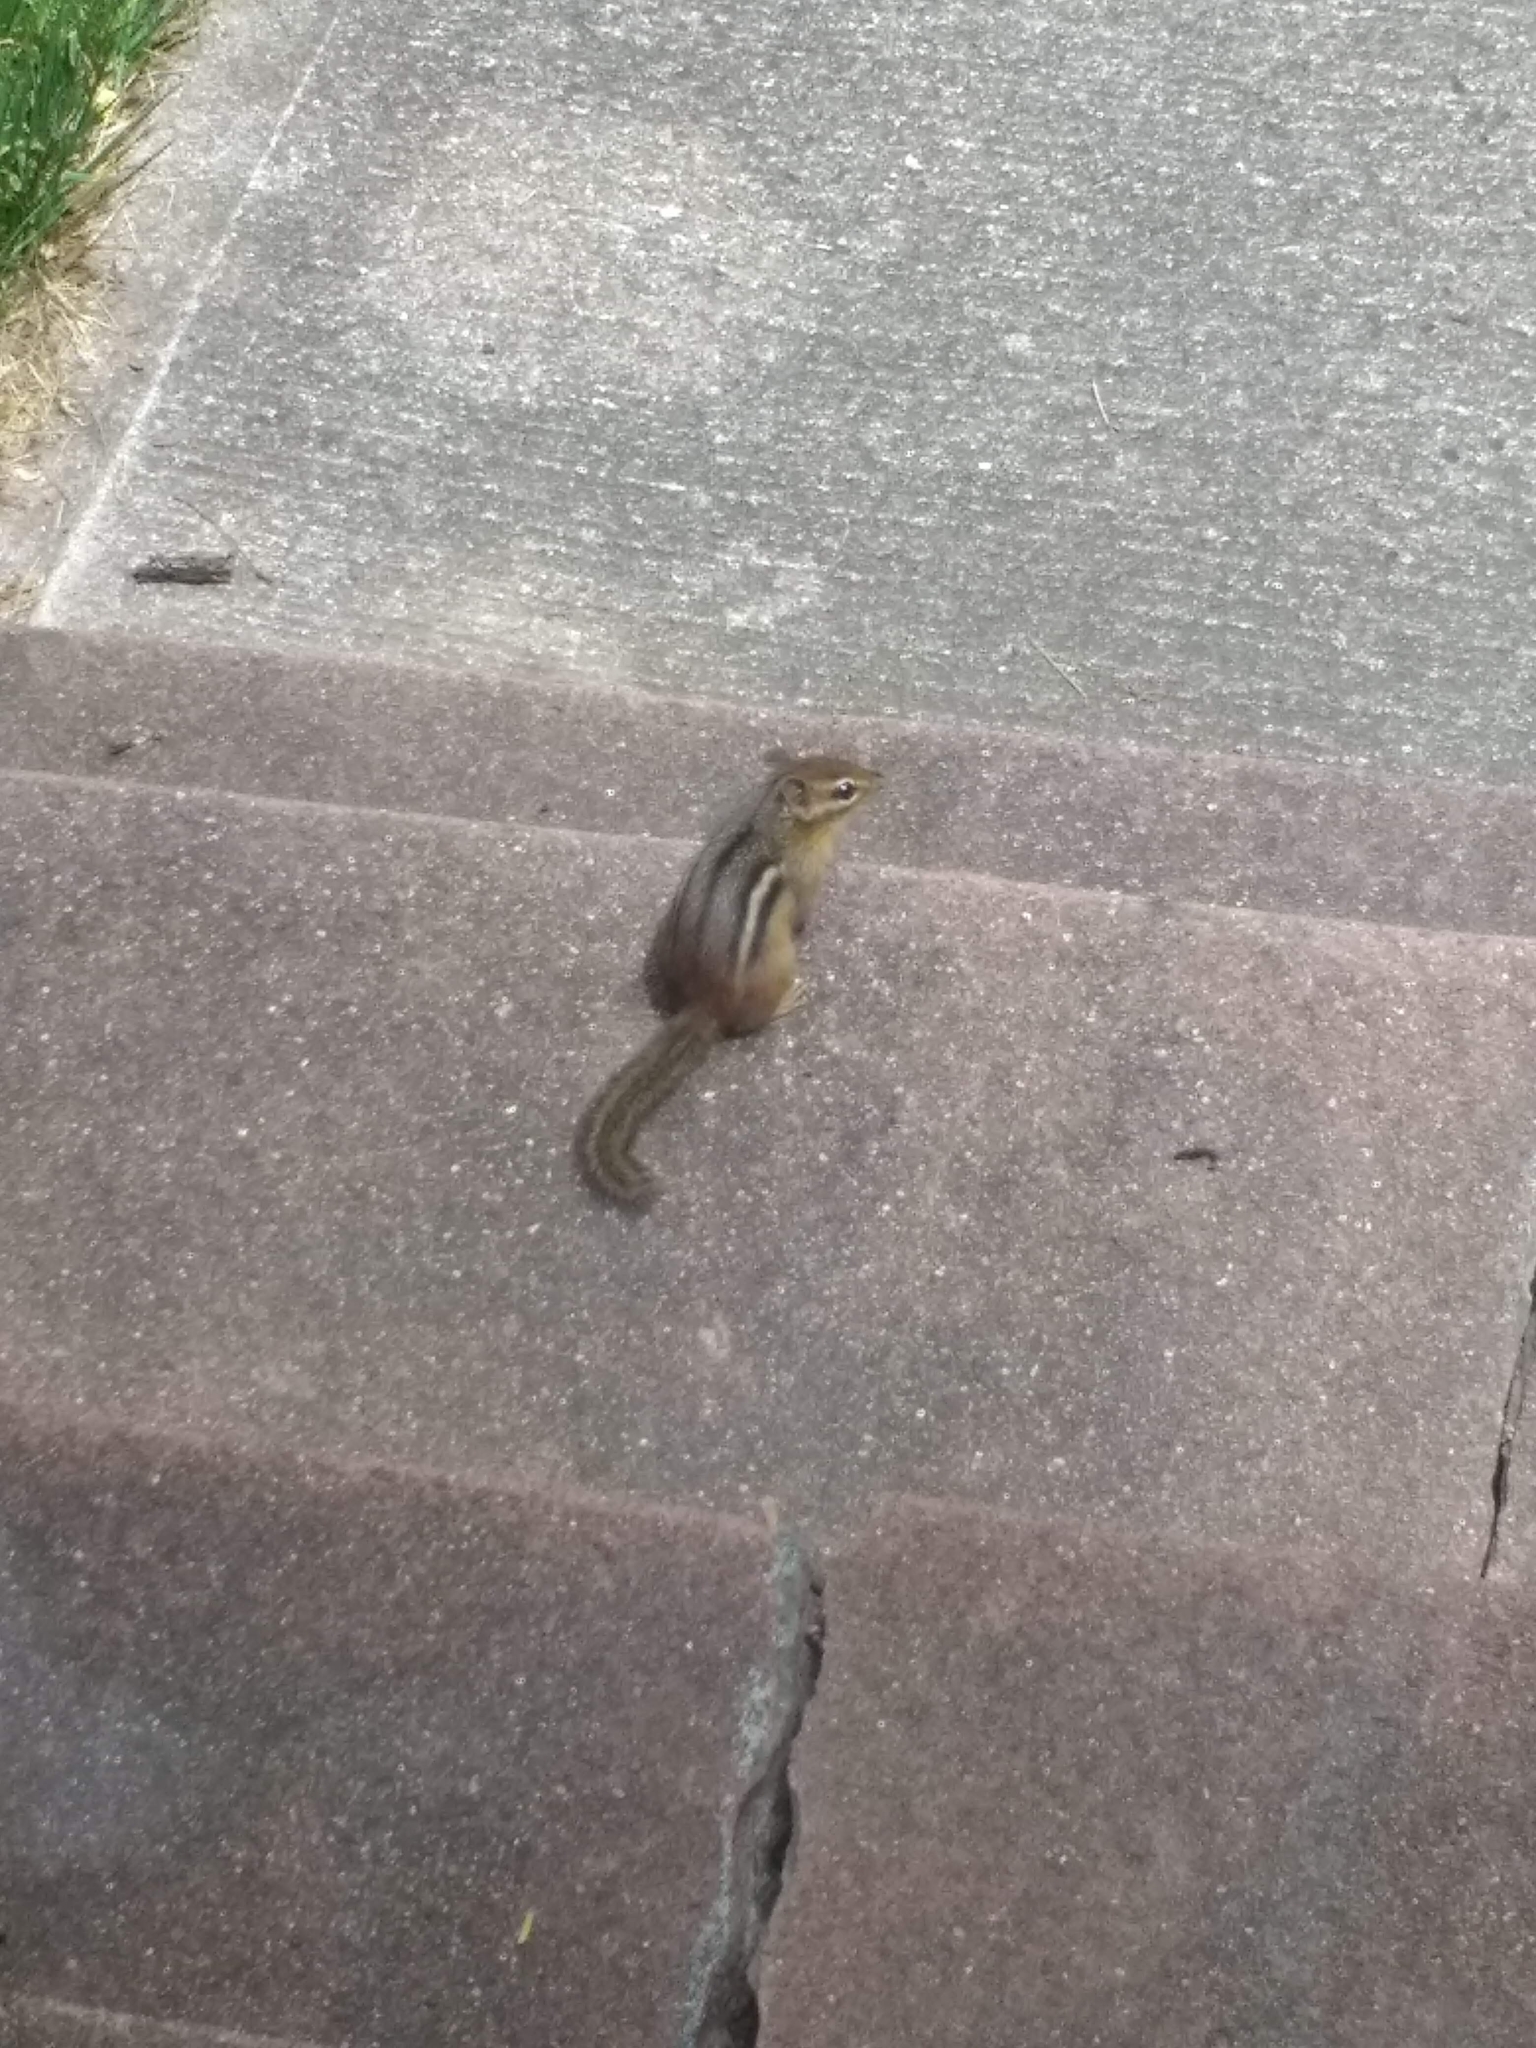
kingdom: Animalia
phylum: Chordata
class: Mammalia
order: Rodentia
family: Sciuridae
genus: Tamias
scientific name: Tamias striatus
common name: Eastern chipmunk
